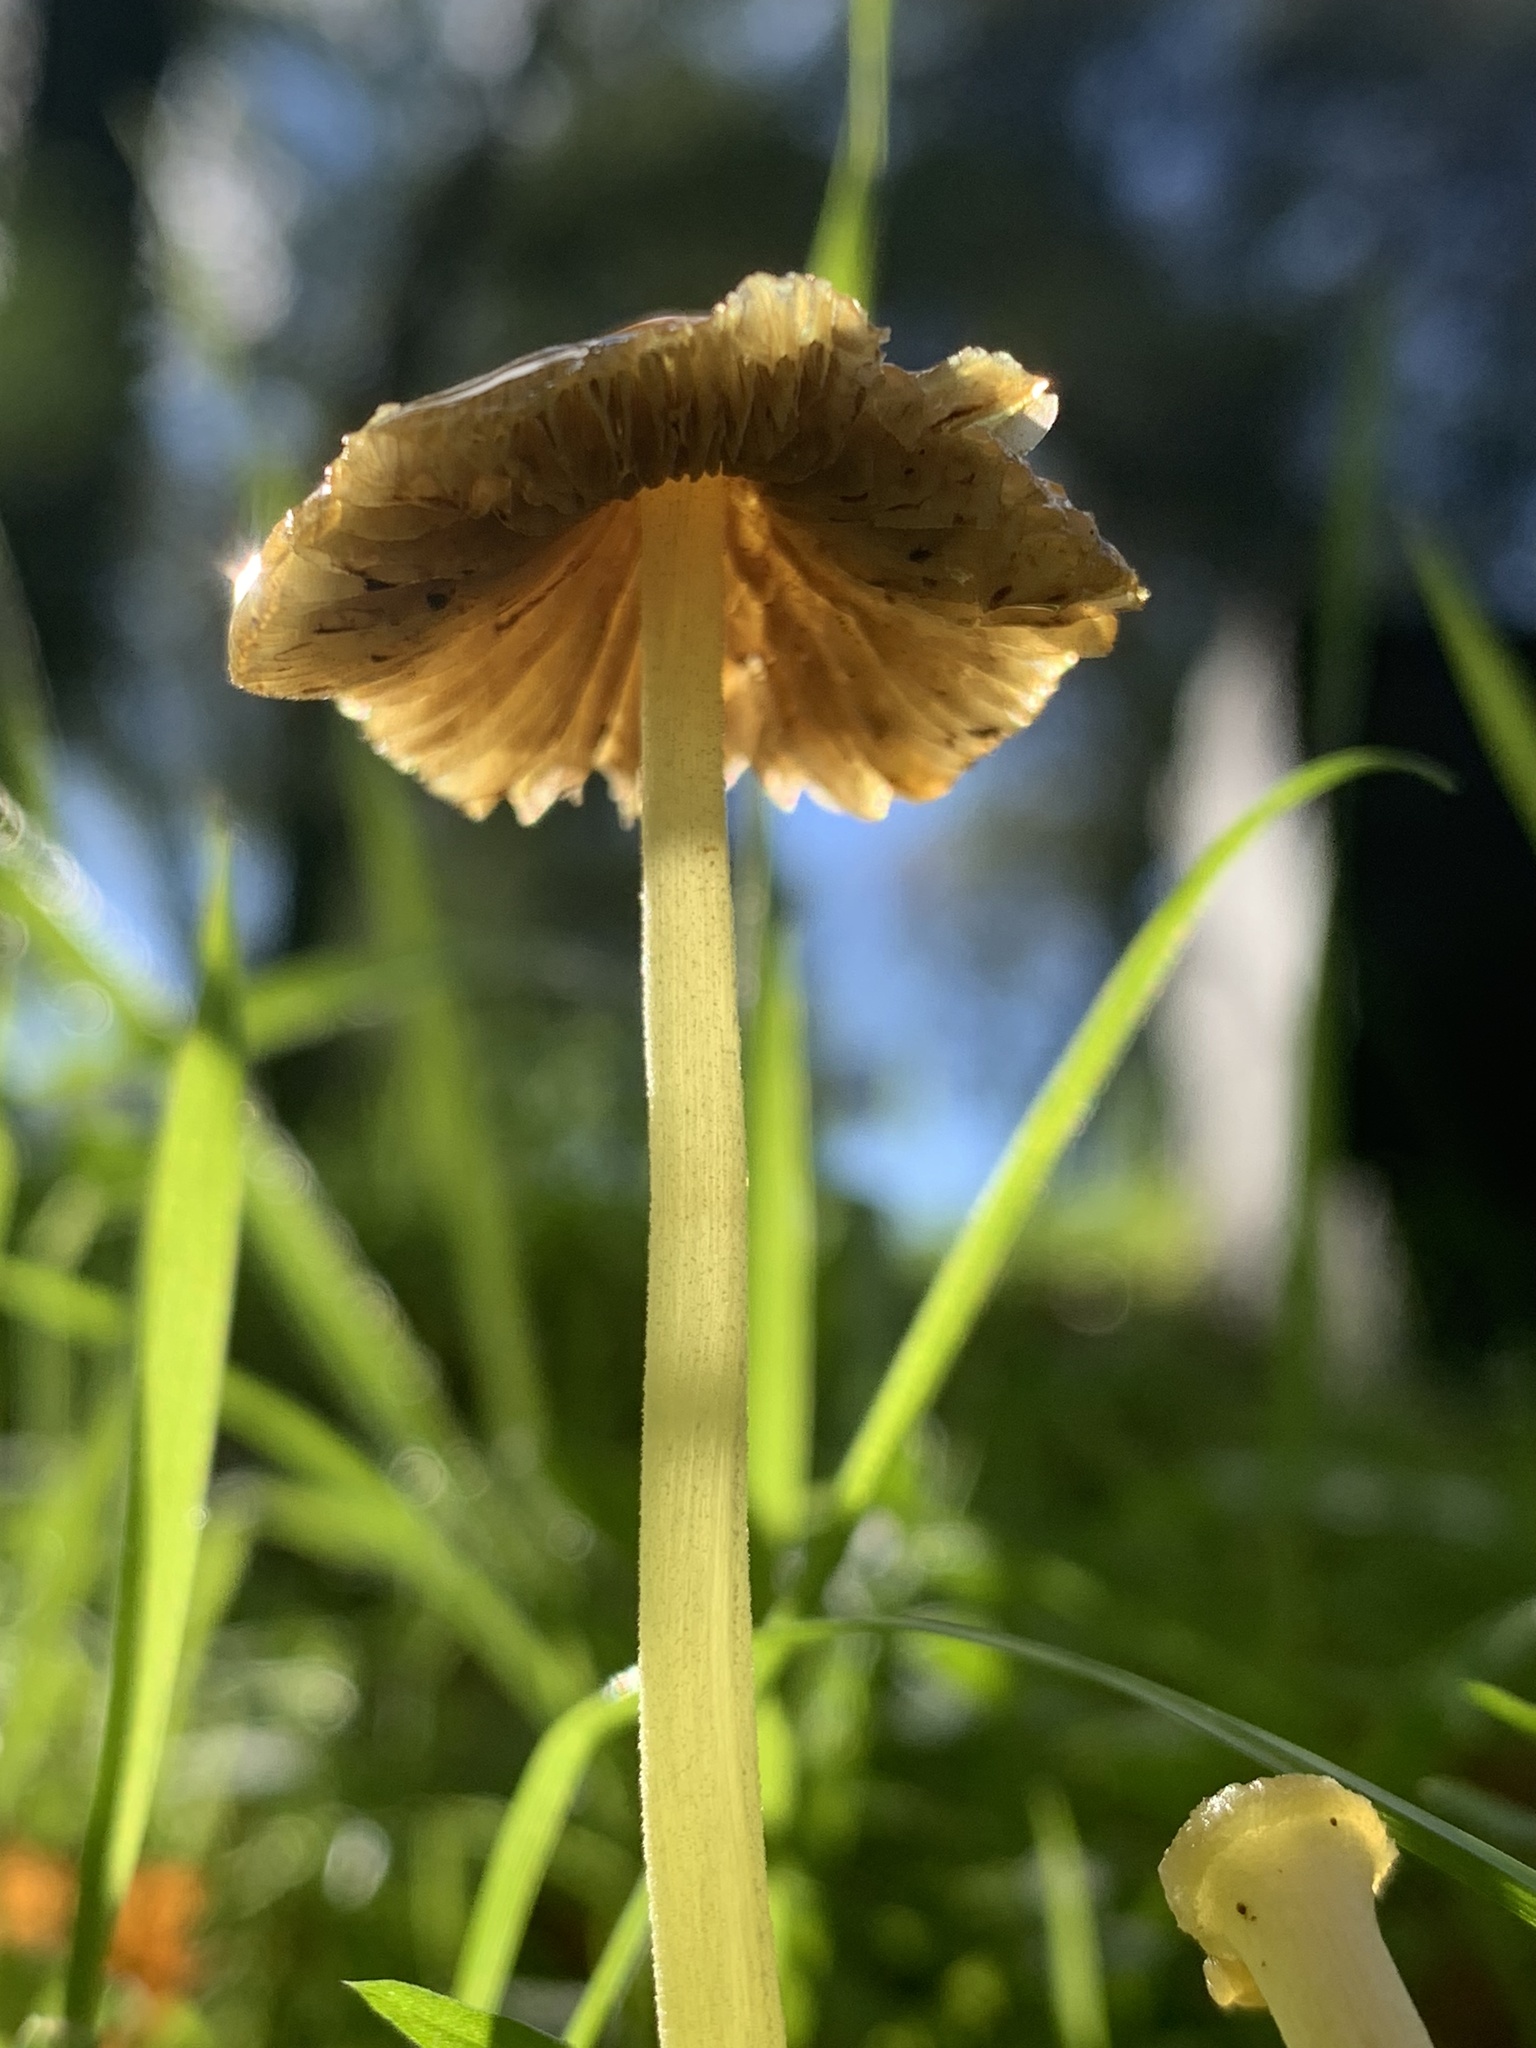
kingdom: Fungi
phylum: Basidiomycota
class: Agaricomycetes
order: Agaricales
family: Bolbitiaceae
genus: Bolbitius
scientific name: Bolbitius titubans
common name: Yellow fieldcap
